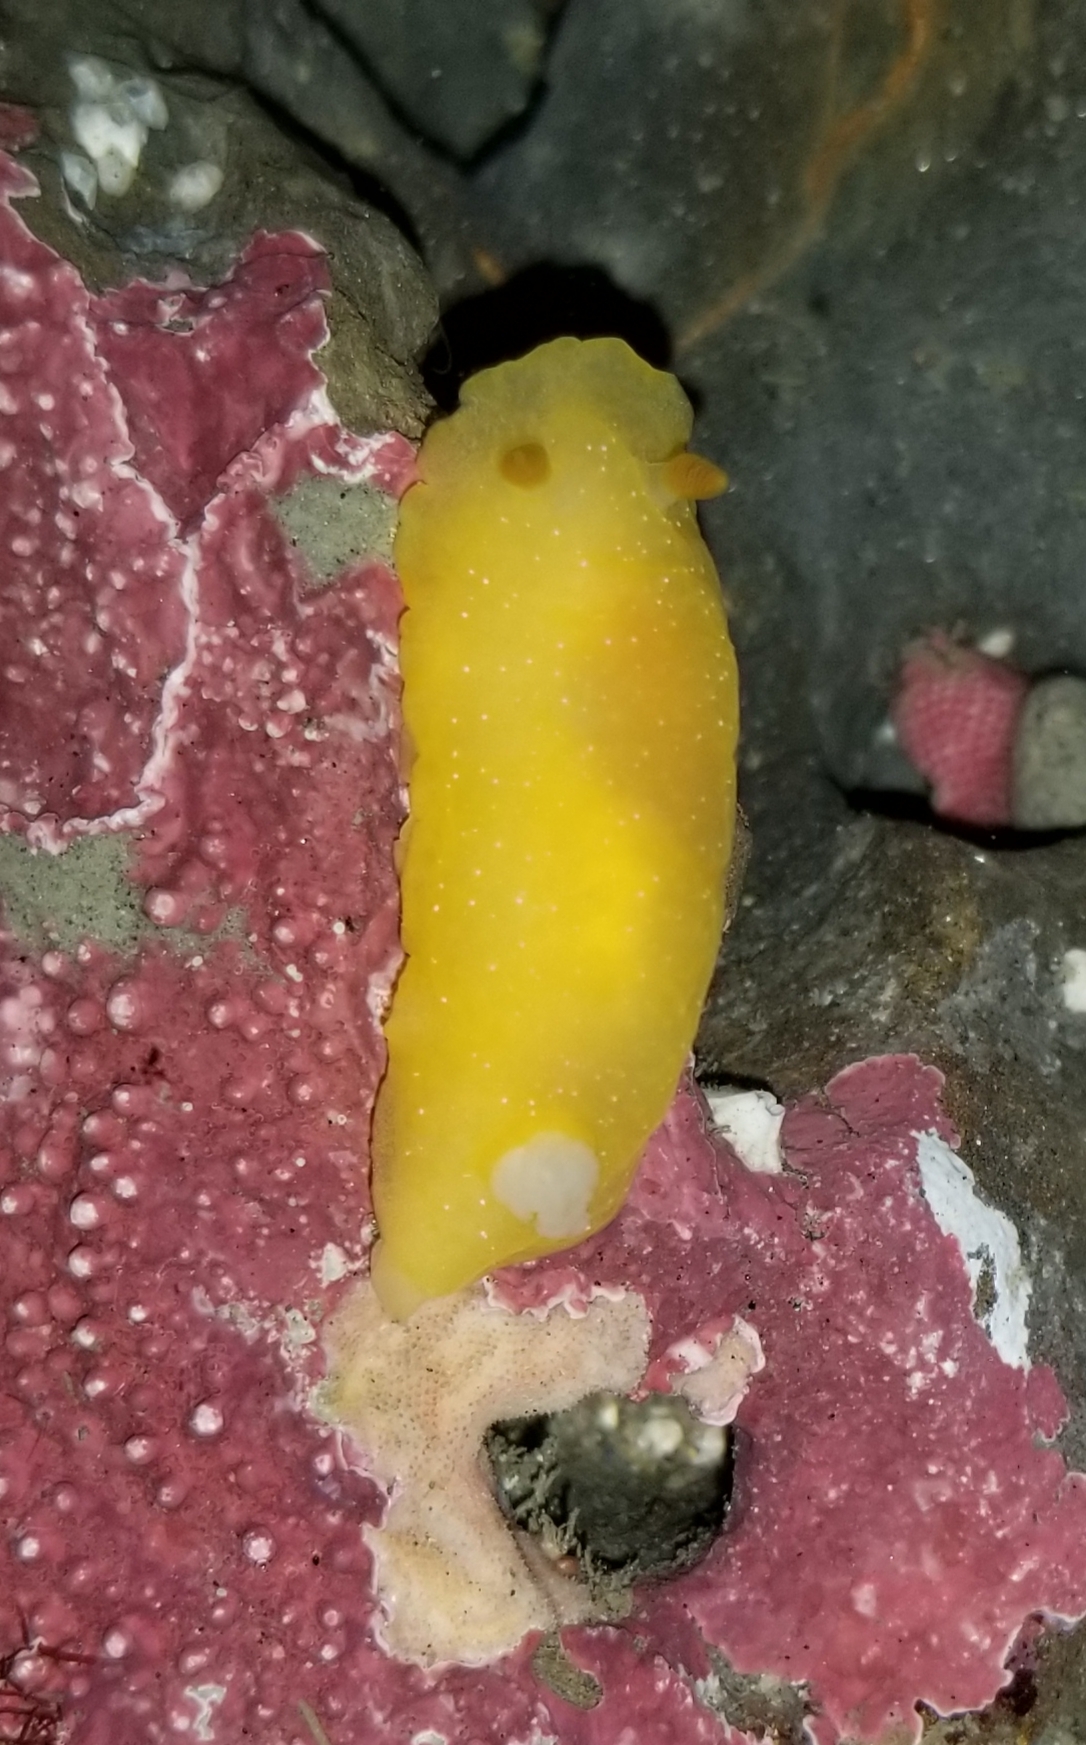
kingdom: Animalia
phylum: Mollusca
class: Gastropoda
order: Nudibranchia
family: Dendrodorididae
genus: Doriopsilla
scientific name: Doriopsilla fulva
